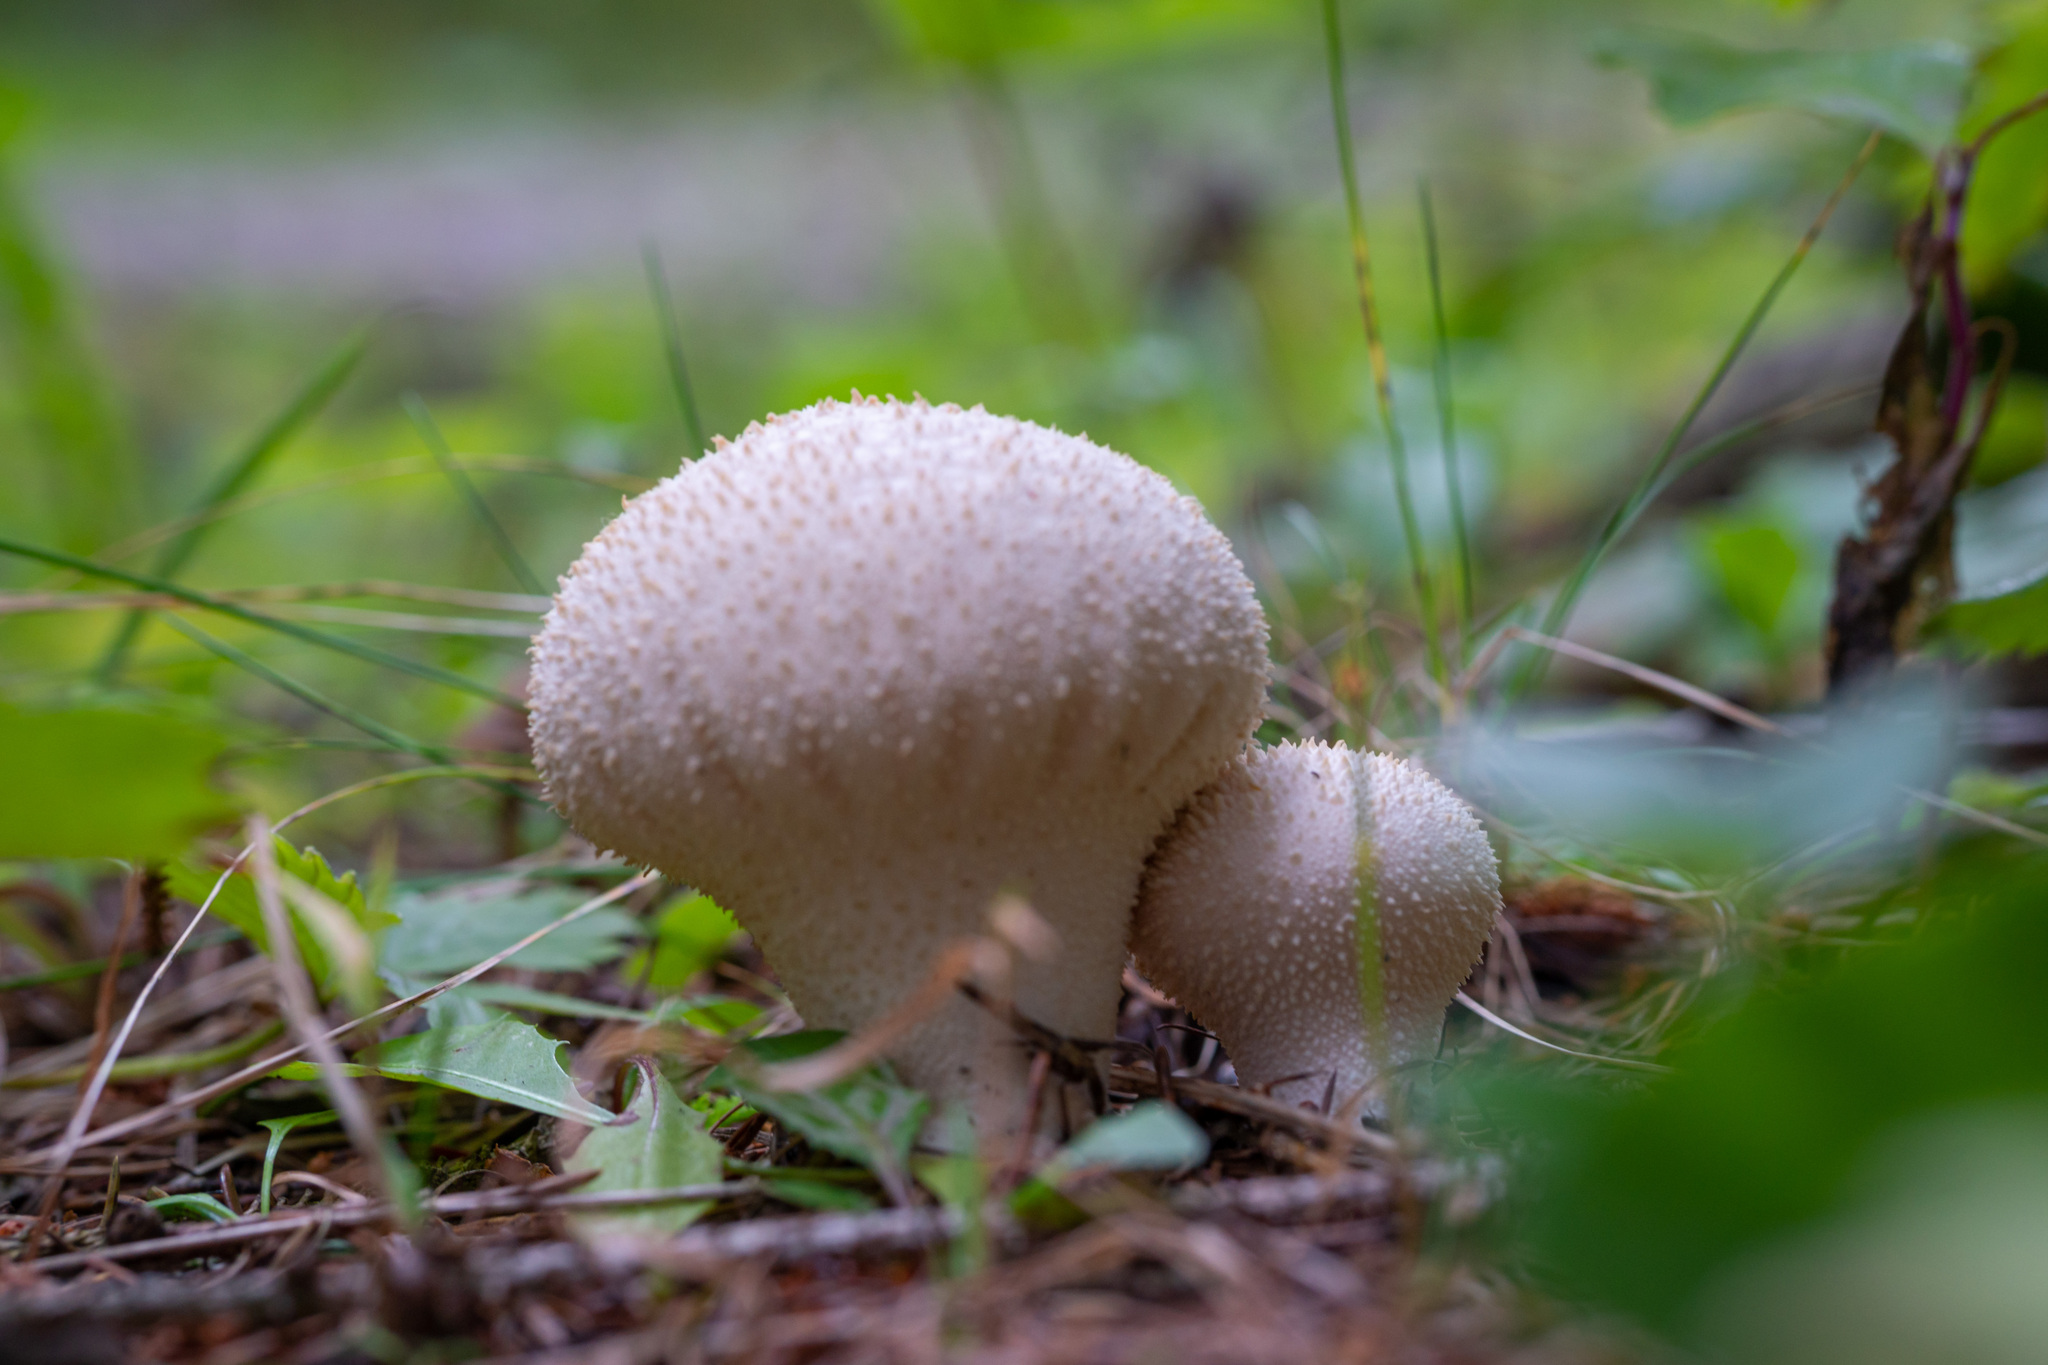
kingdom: Fungi
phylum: Basidiomycota
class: Agaricomycetes
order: Agaricales
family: Lycoperdaceae
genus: Lycoperdon
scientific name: Lycoperdon perlatum
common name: Common puffball
